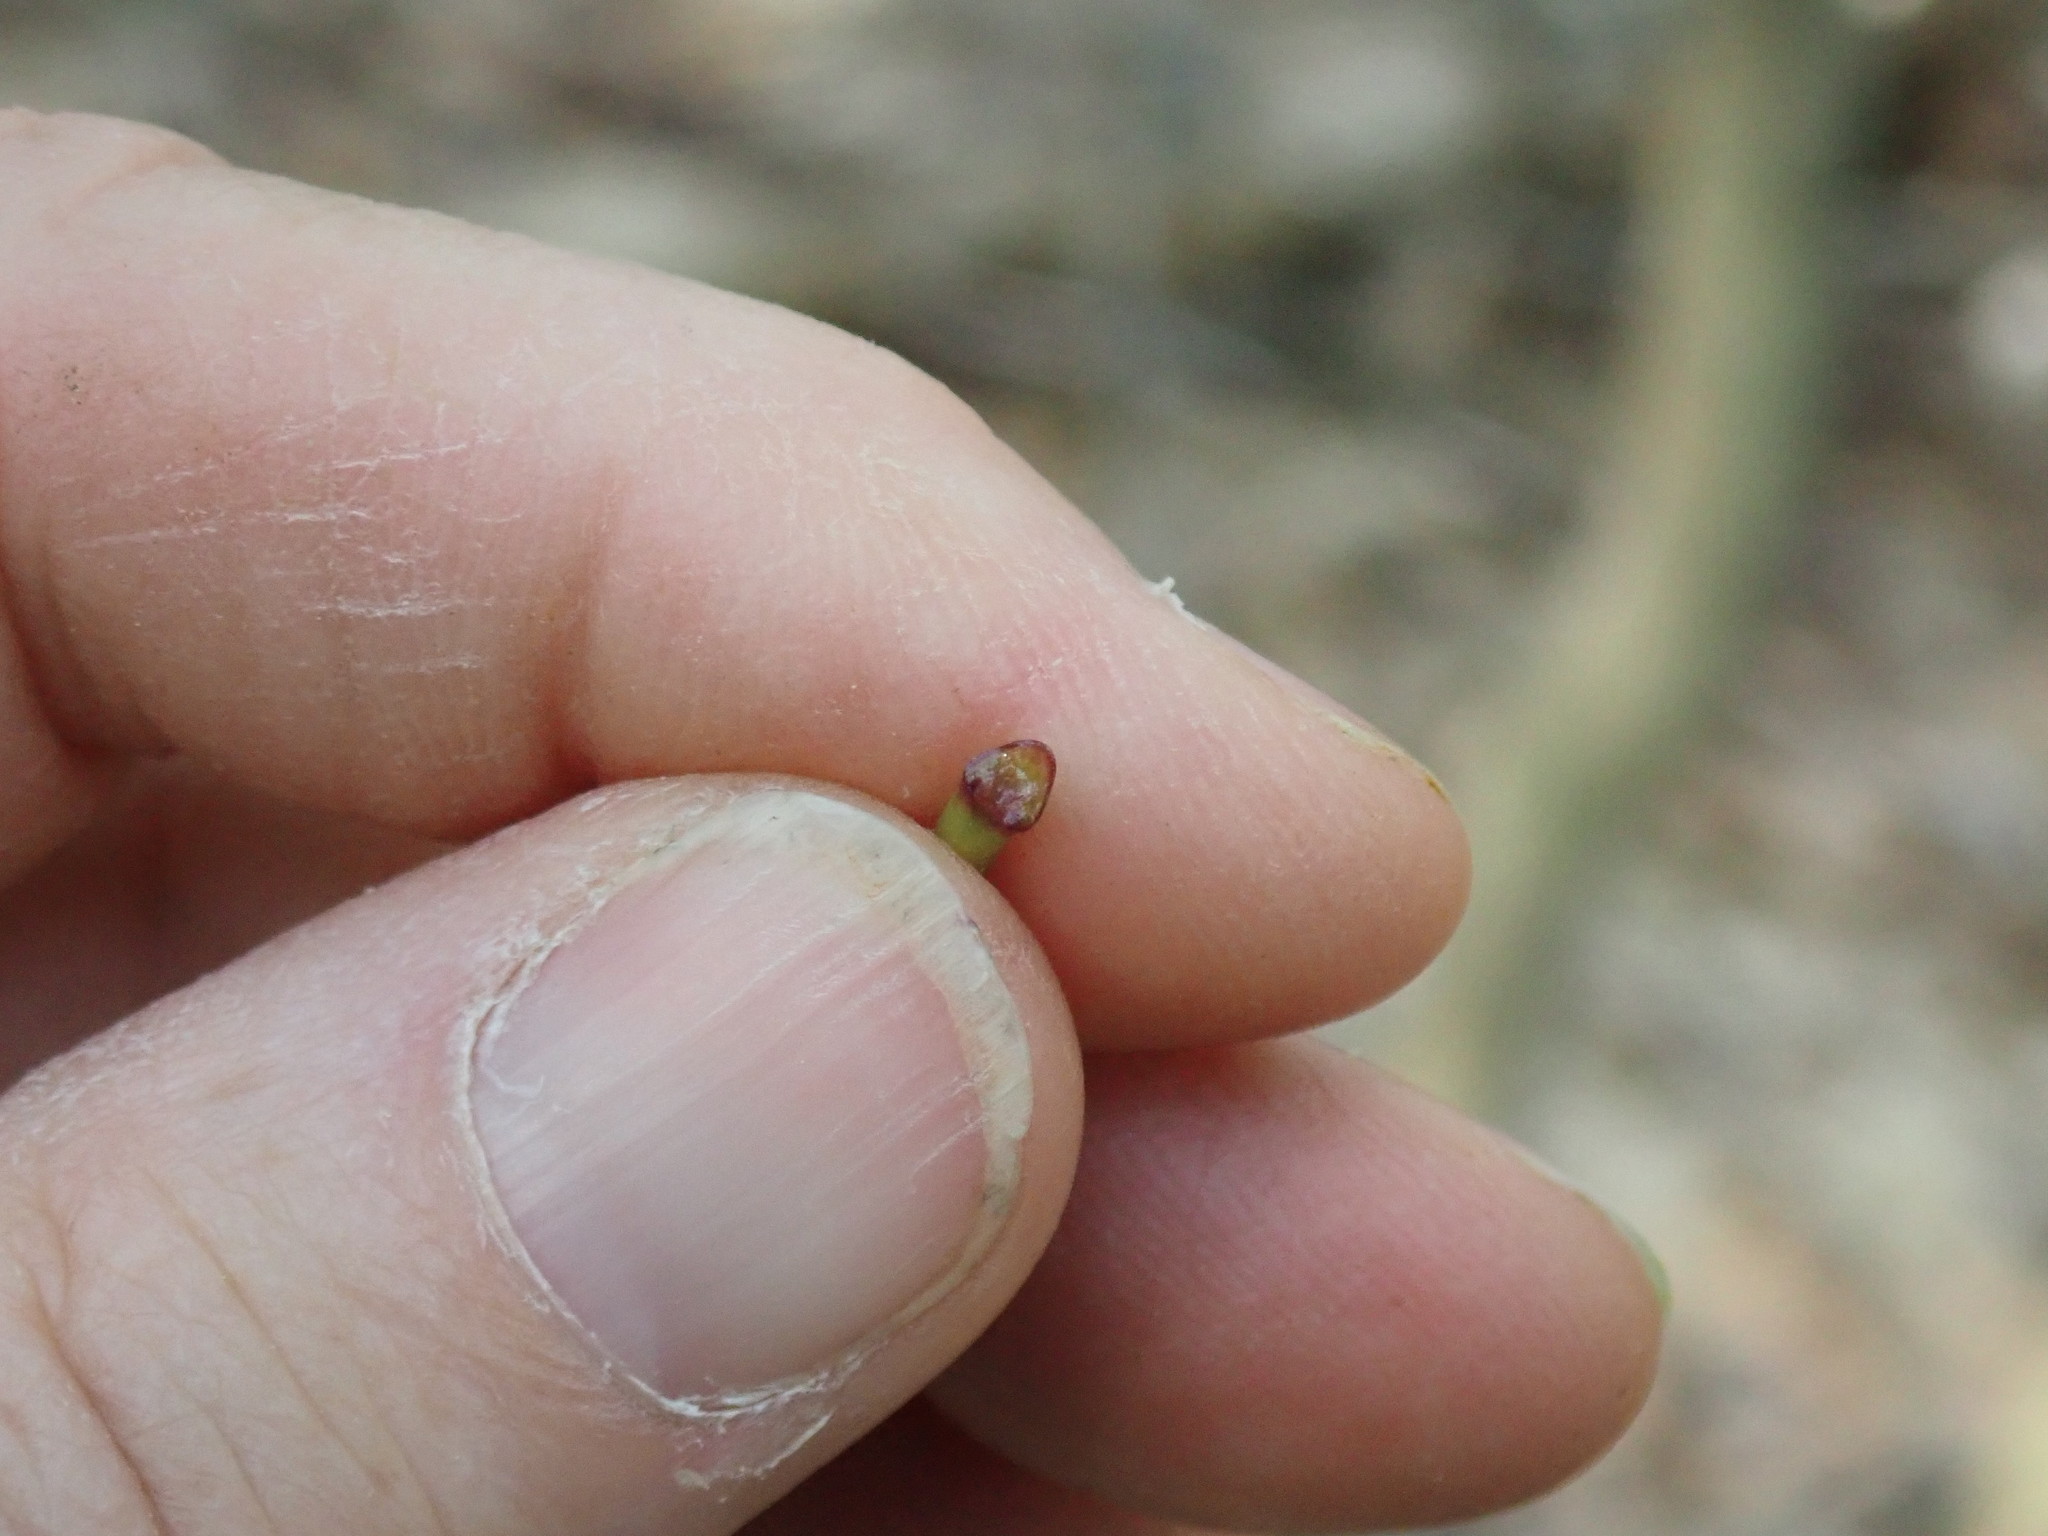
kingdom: Plantae
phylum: Tracheophyta
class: Magnoliopsida
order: Sapindales
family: Sapindaceae
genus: Acer
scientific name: Acer saccharum
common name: Sugar maple
